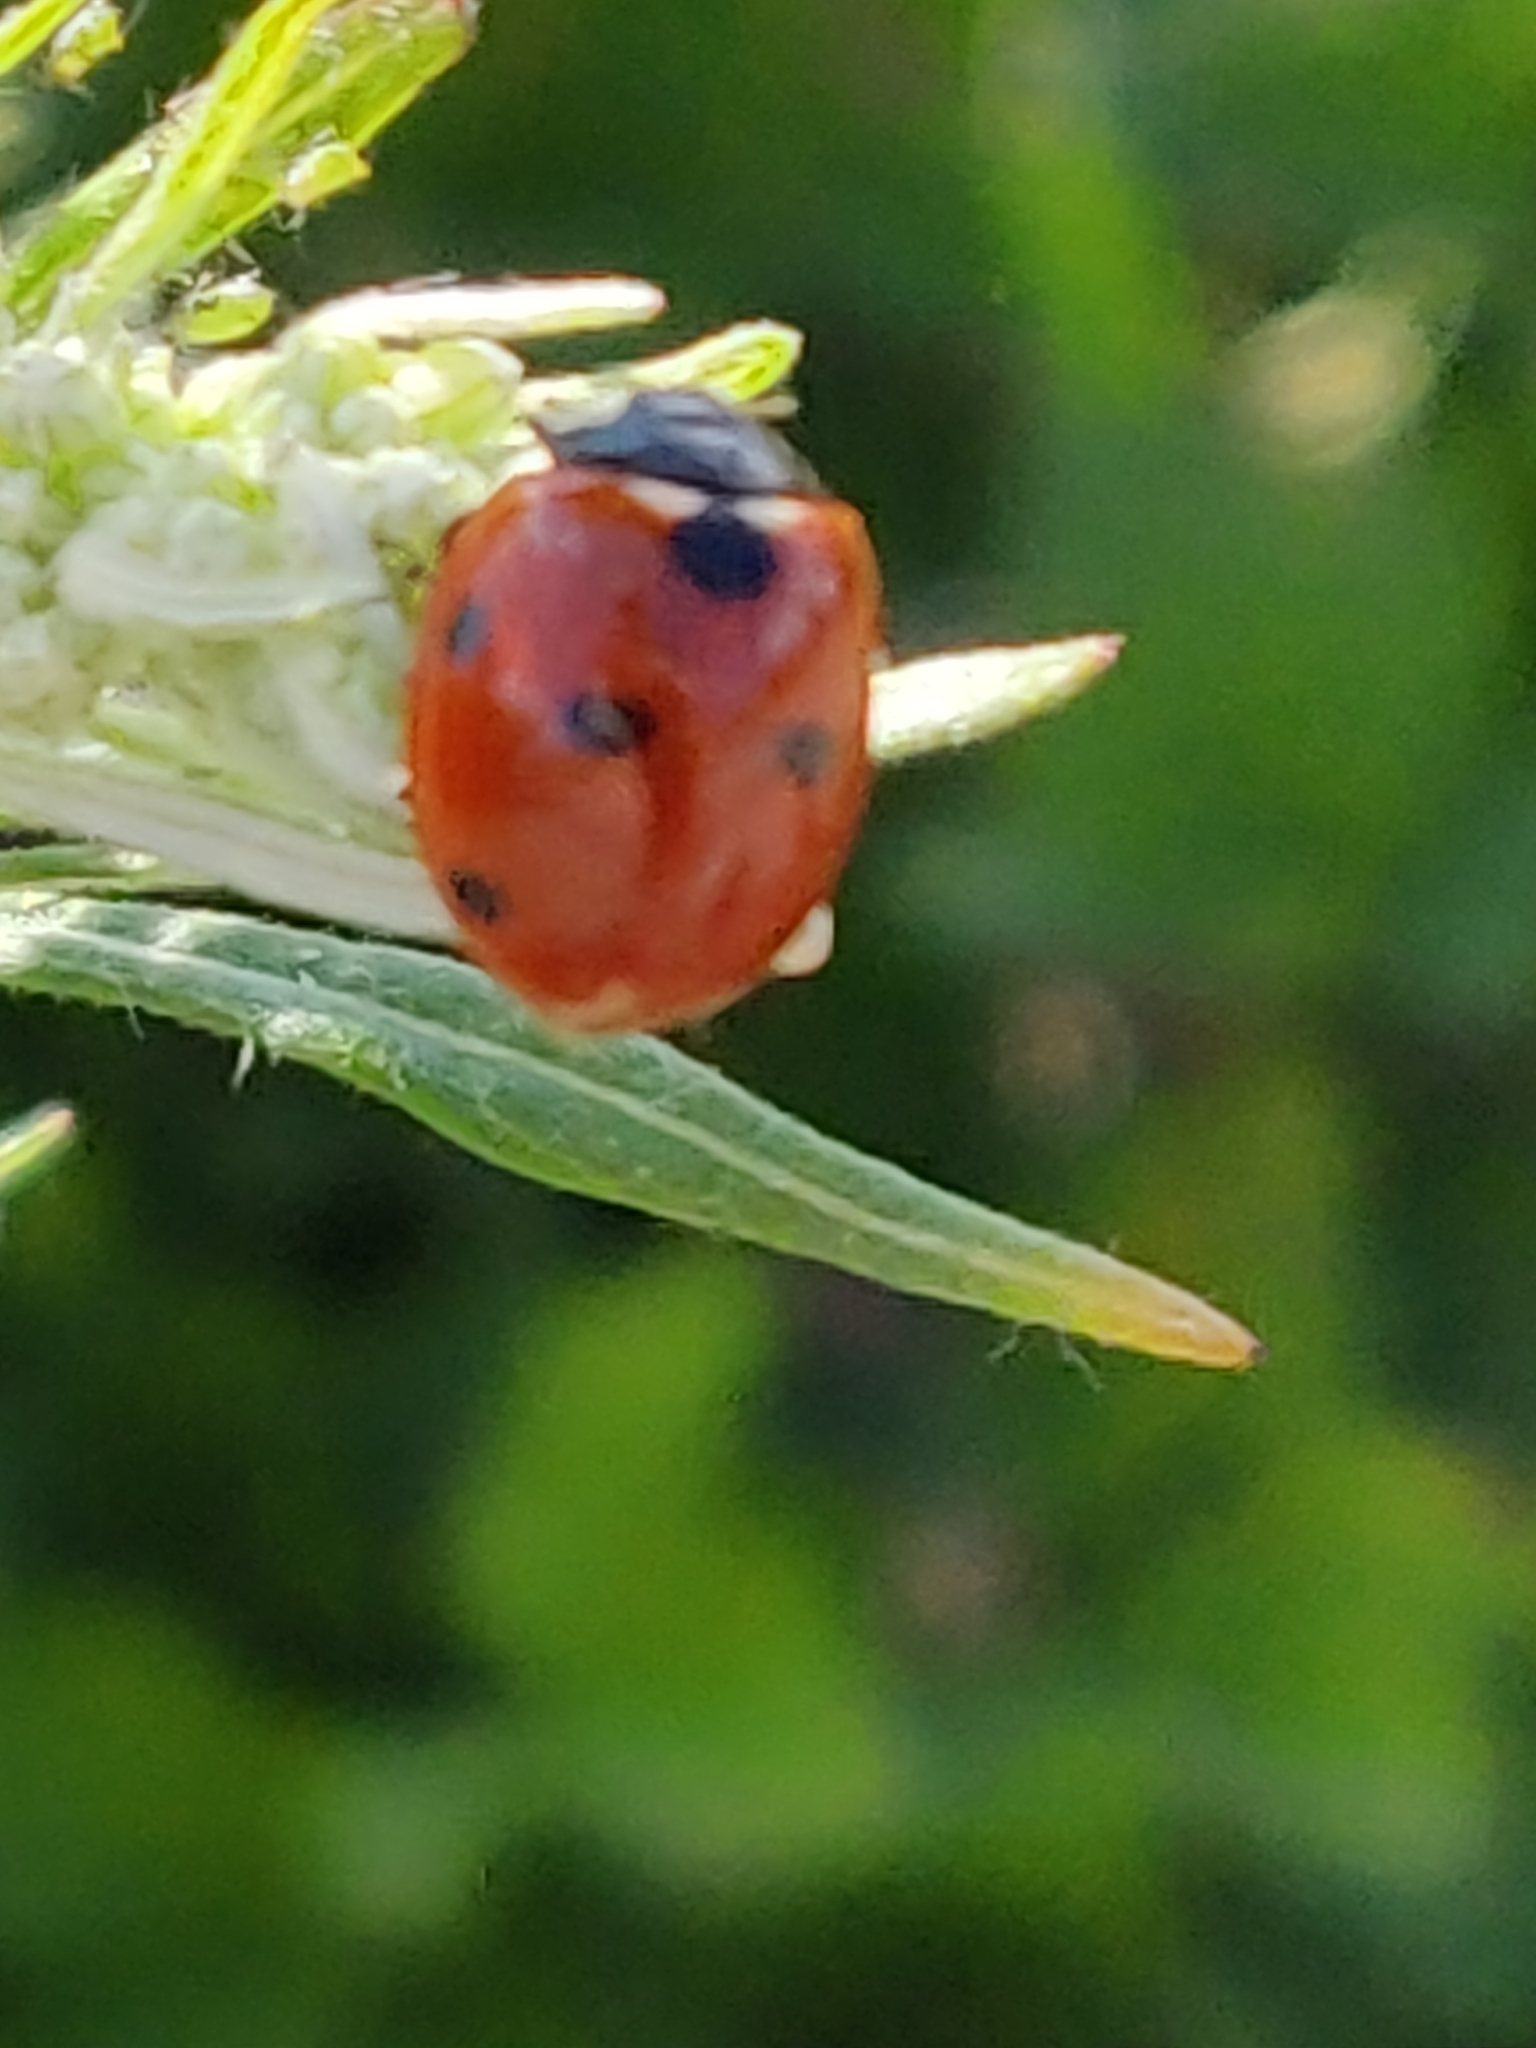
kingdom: Animalia
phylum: Arthropoda
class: Insecta
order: Coleoptera
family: Coccinellidae
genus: Coccinella
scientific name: Coccinella septempunctata
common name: Sevenspotted lady beetle
